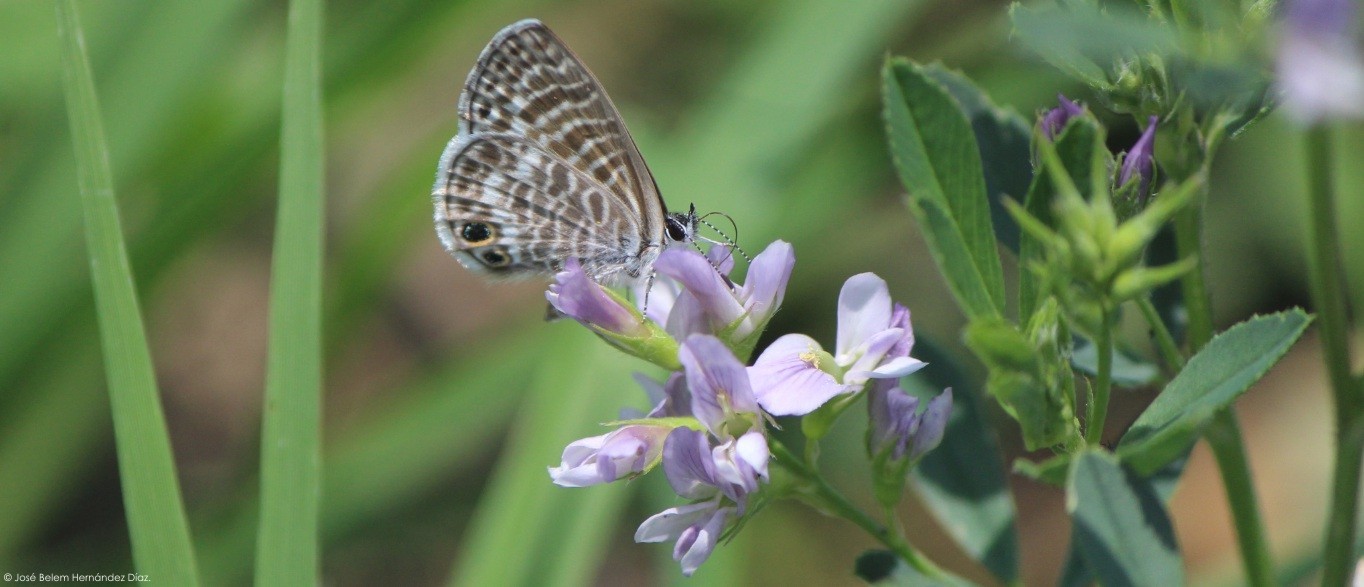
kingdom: Animalia
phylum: Arthropoda
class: Insecta
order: Lepidoptera
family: Lycaenidae
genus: Leptotes
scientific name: Leptotes marina
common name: Marine blue
